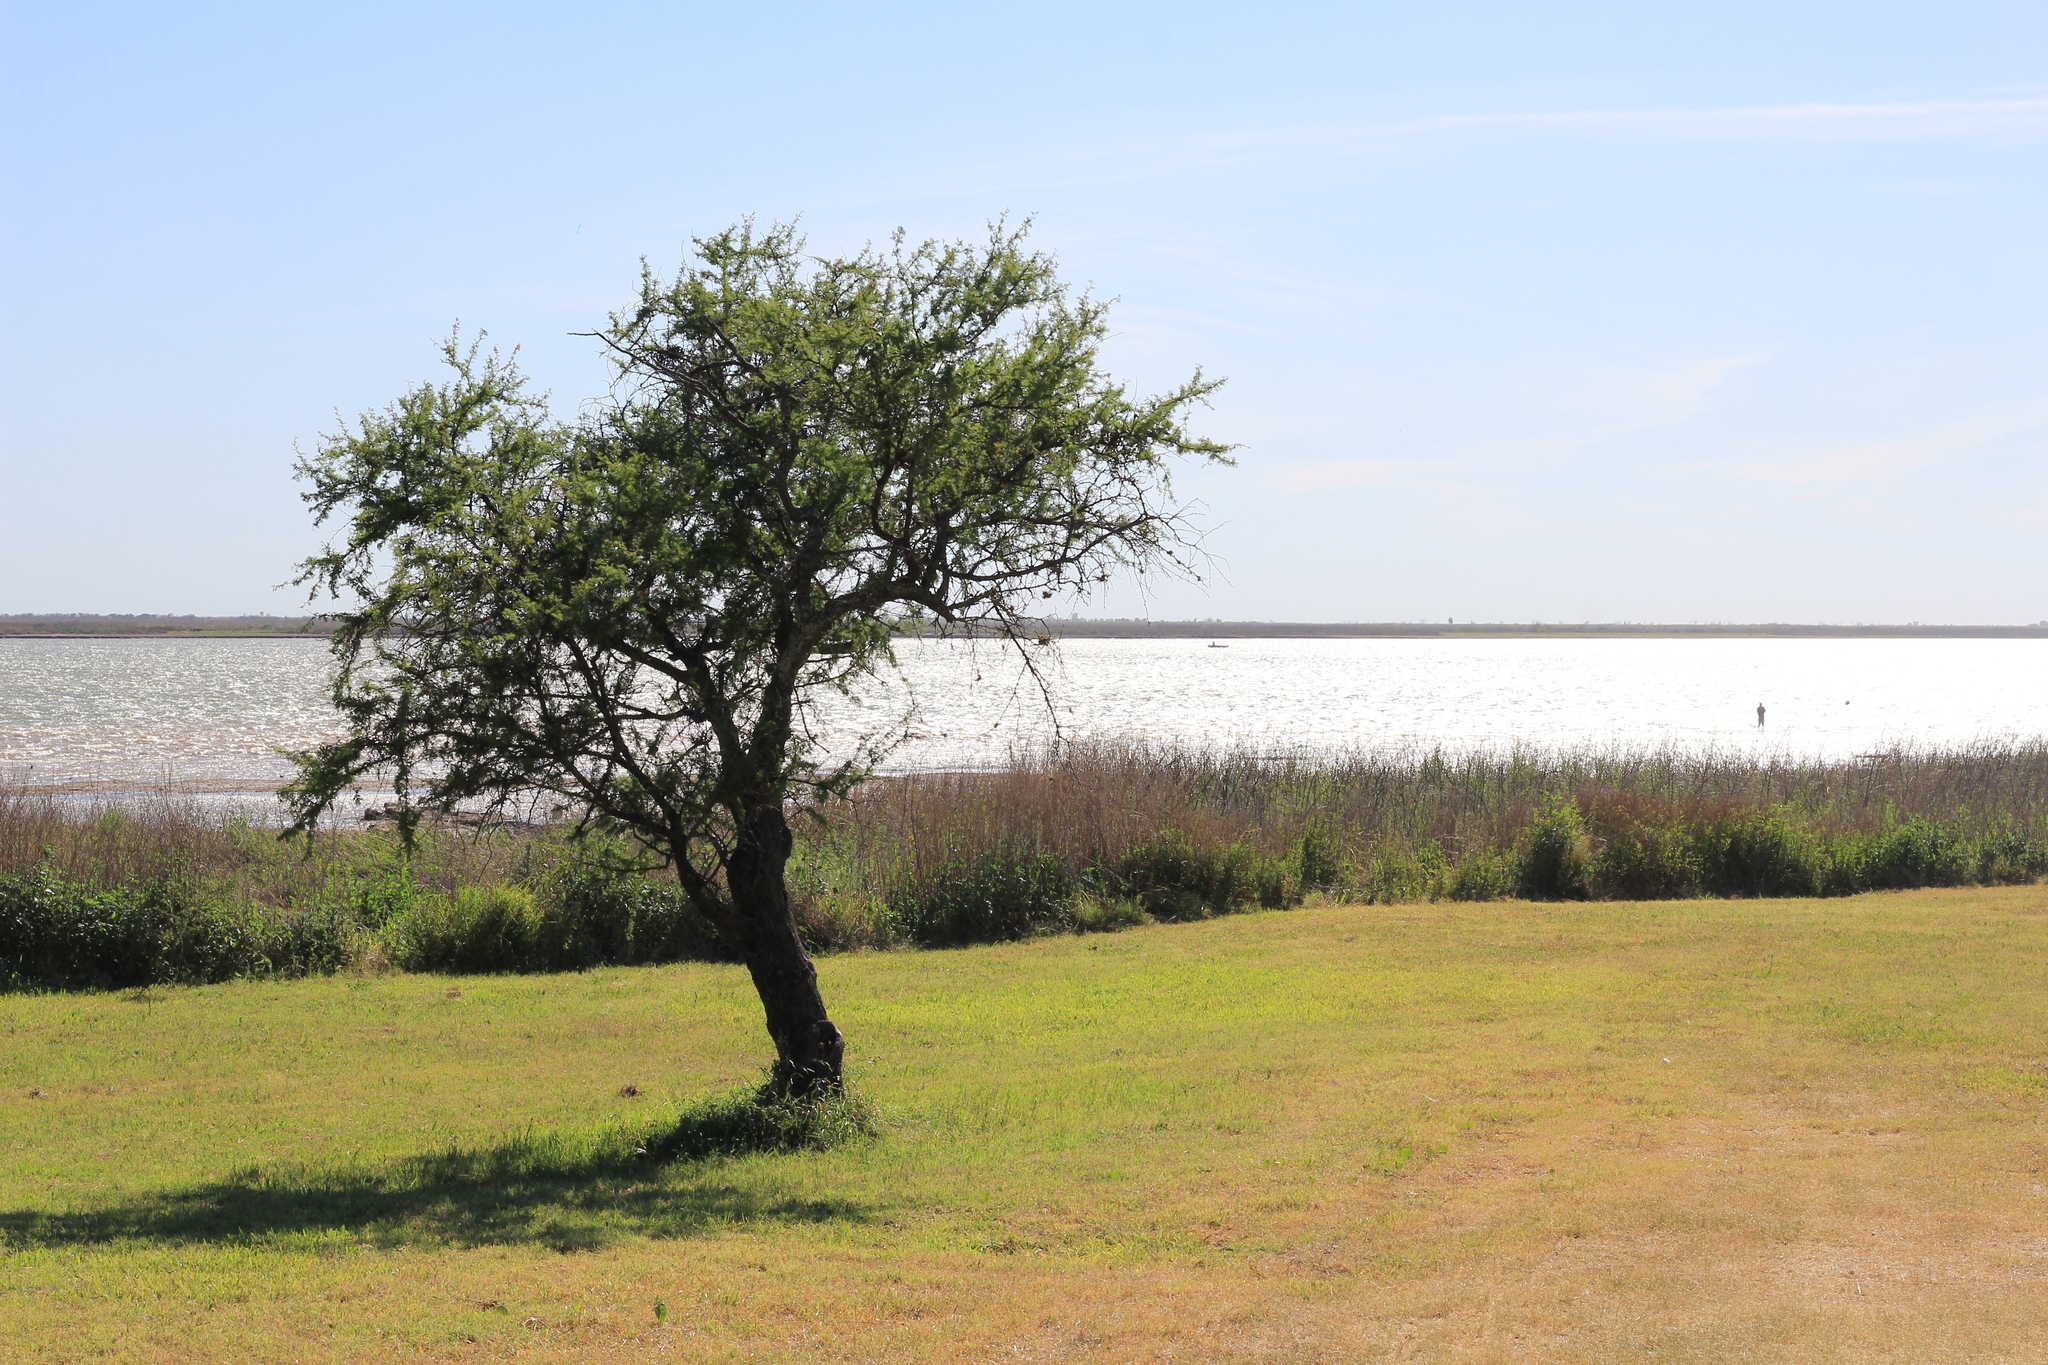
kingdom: Plantae
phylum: Tracheophyta
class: Magnoliopsida
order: Fabales
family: Fabaceae
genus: Vachellia
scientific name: Vachellia caven
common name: Roman cassie
